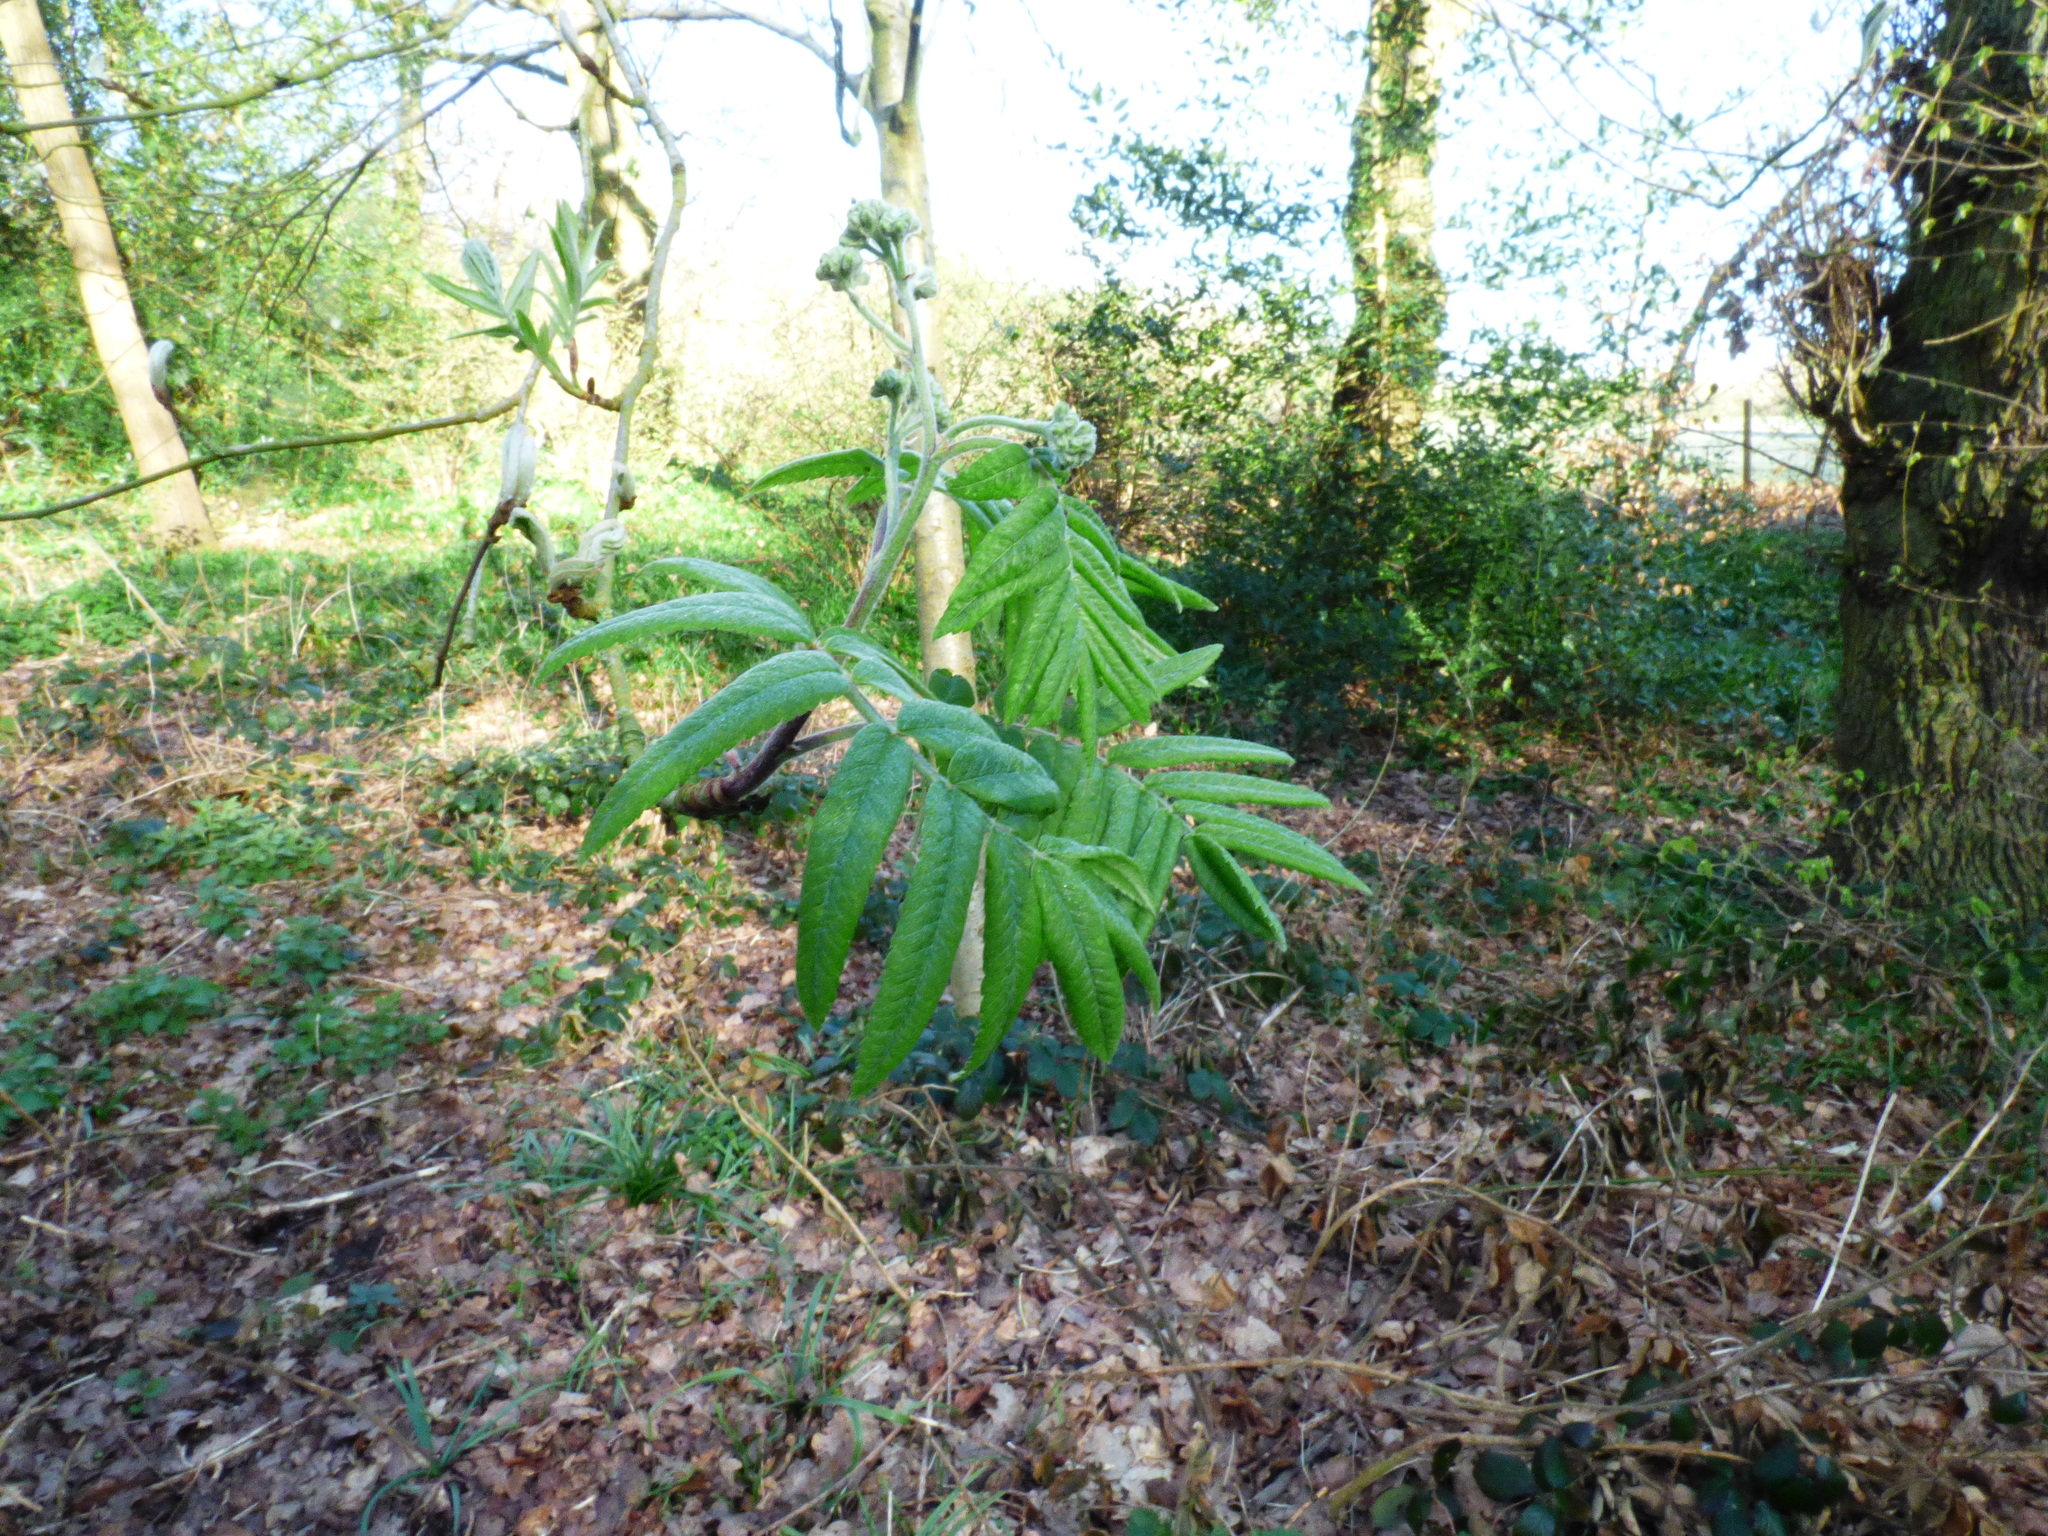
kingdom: Plantae
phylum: Tracheophyta
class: Magnoliopsida
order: Rosales
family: Rosaceae
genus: Sorbus
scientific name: Sorbus aucuparia
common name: Rowan
